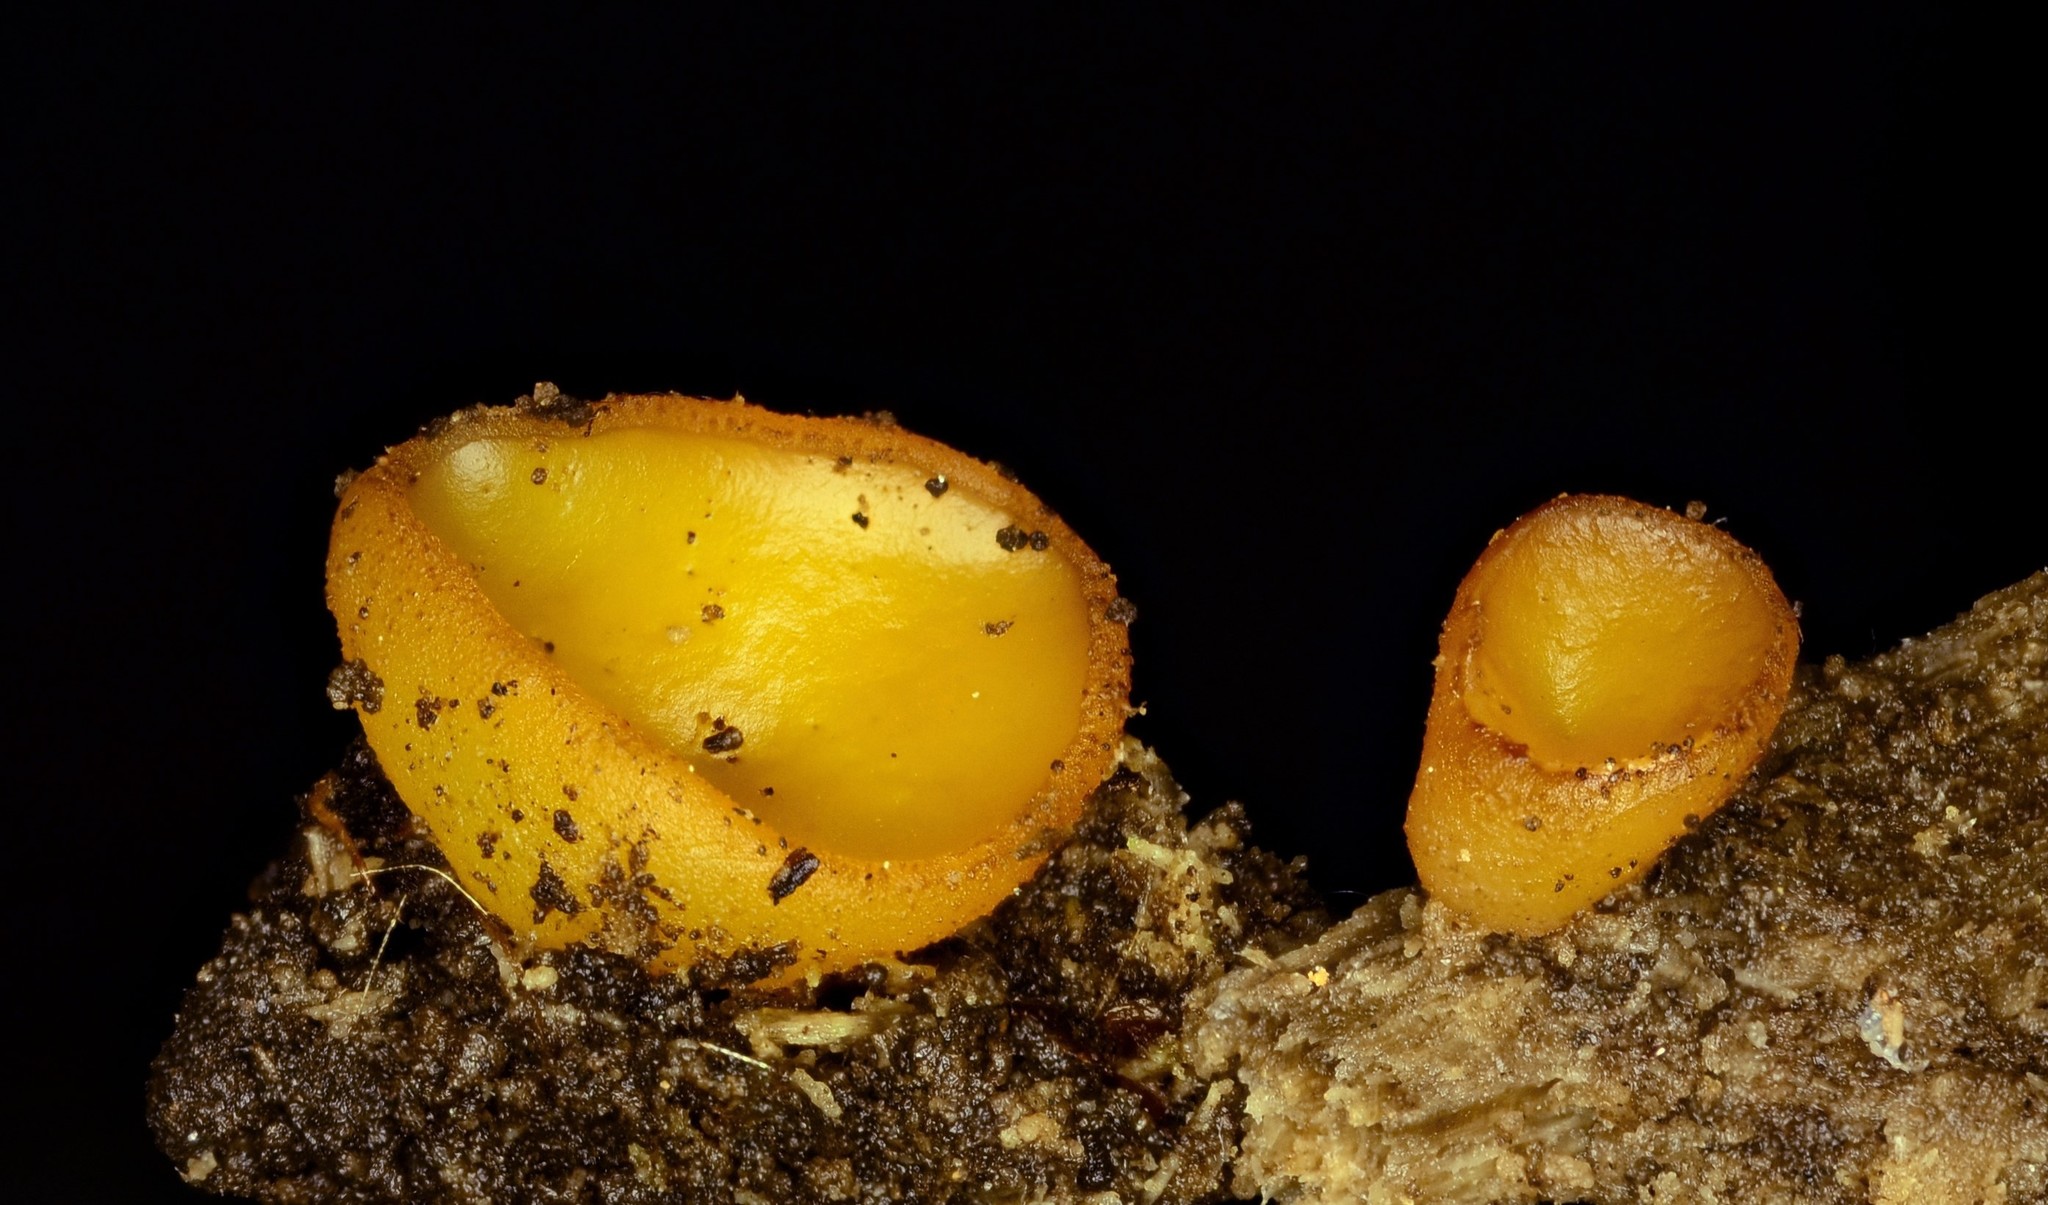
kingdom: Fungi
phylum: Ascomycota
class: Pezizomycetes
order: Pezizales
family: Pezizaceae
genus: Elaiopezia
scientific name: Elaiopezia waltersii
